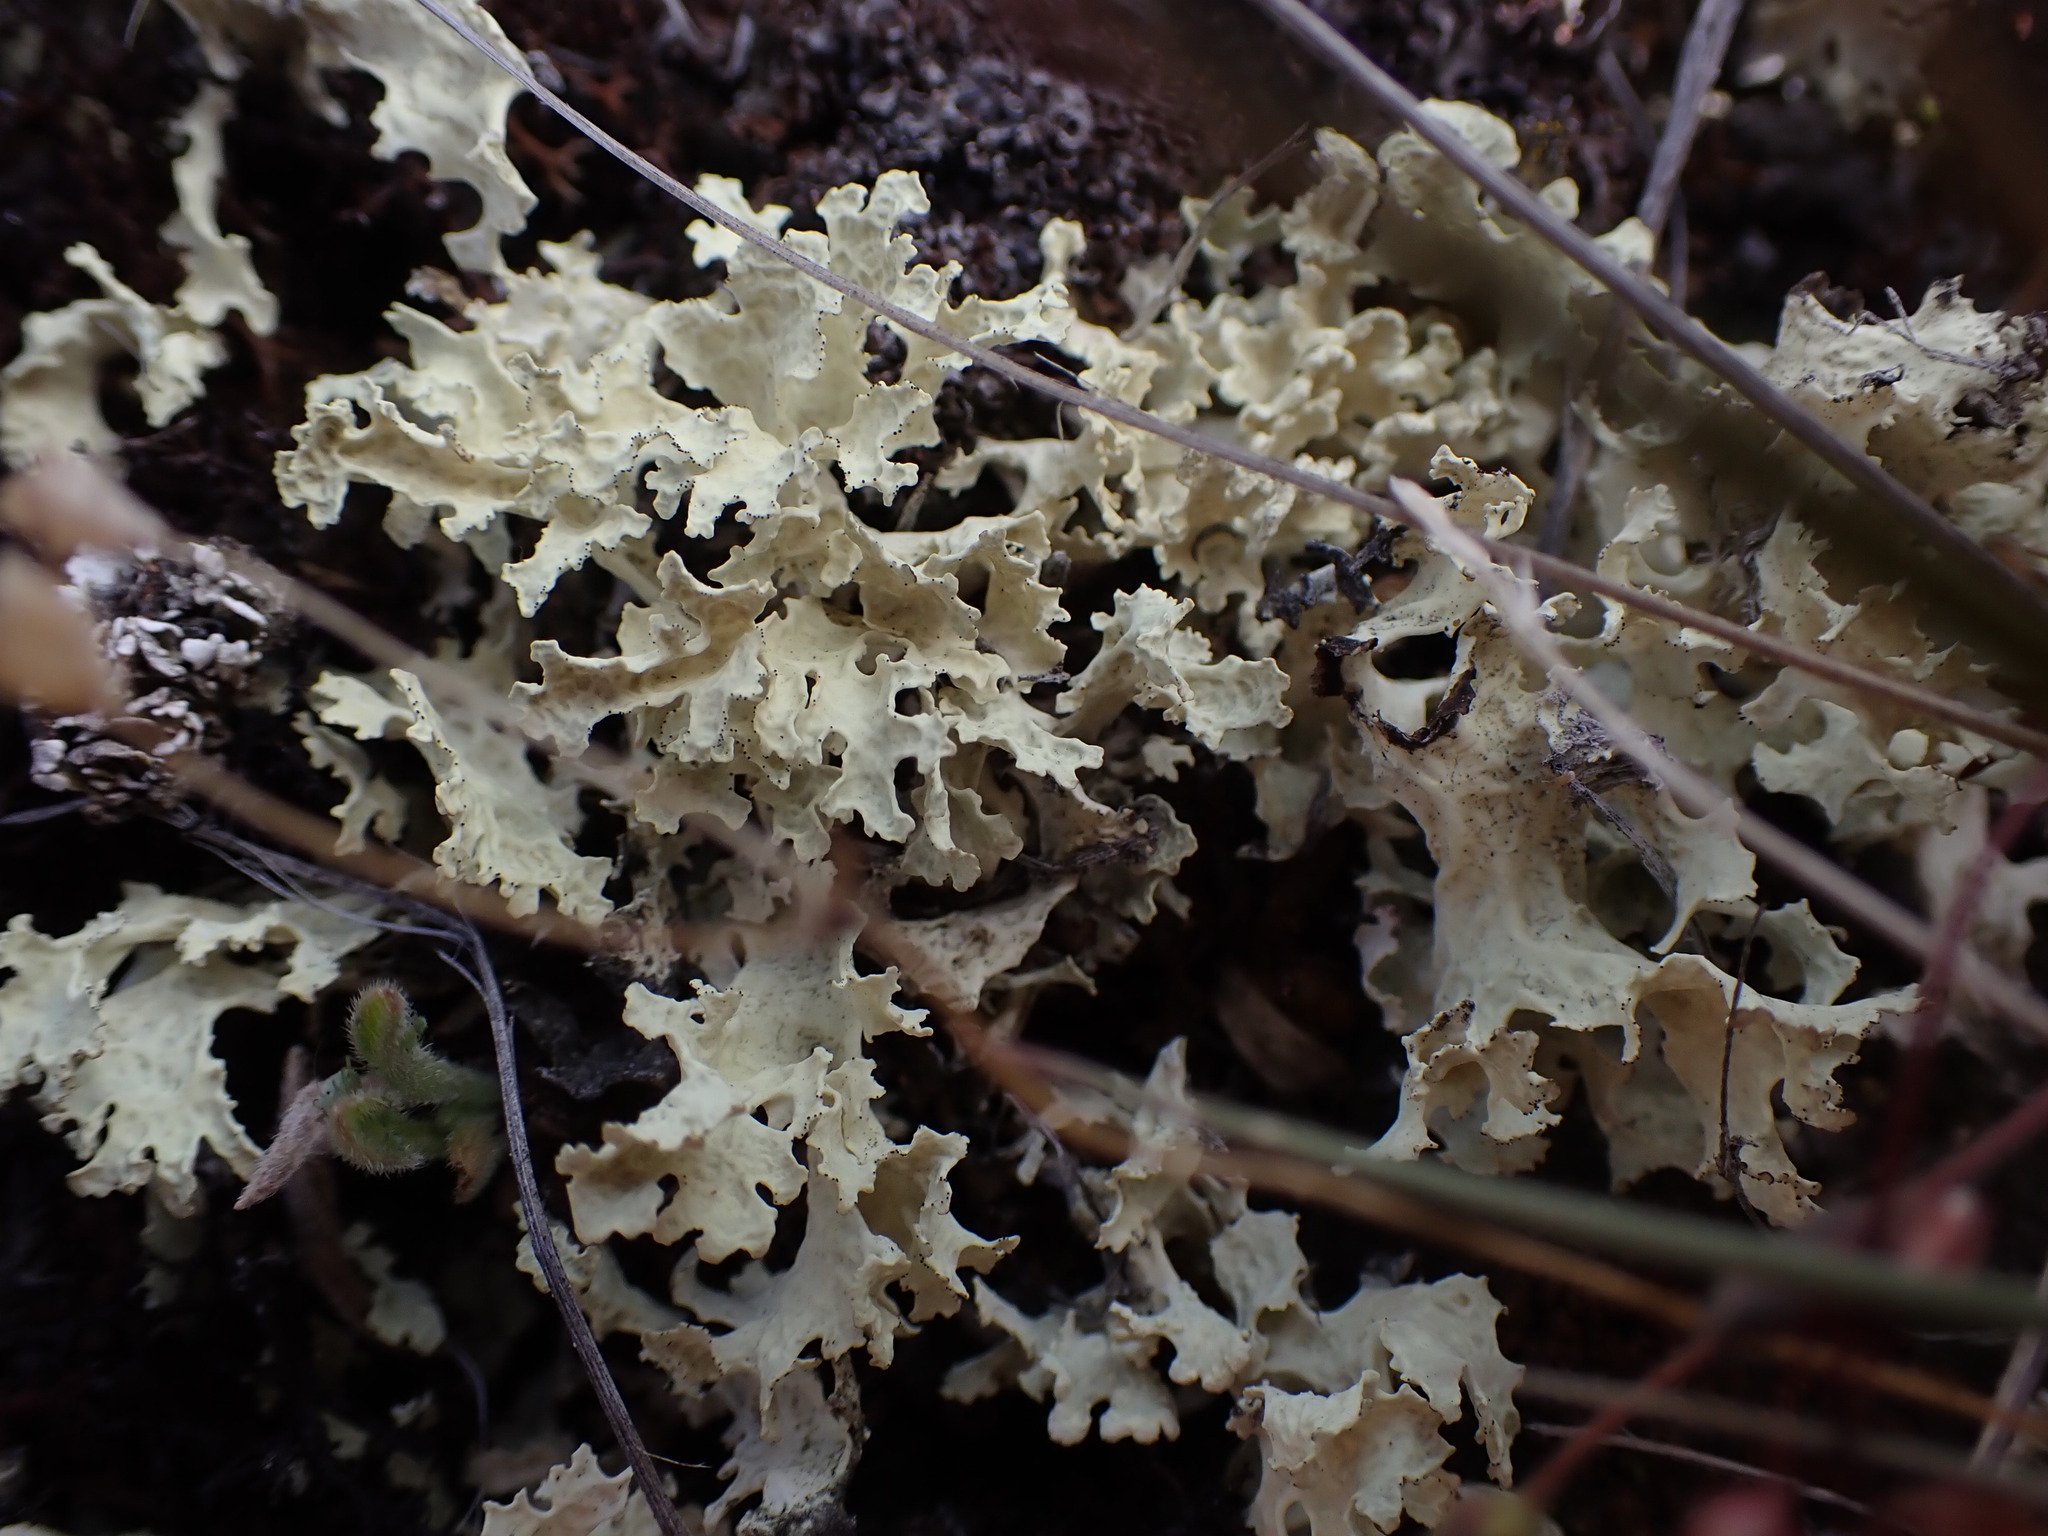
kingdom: Fungi
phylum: Ascomycota
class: Lecanoromycetes
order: Lecanorales
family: Parmeliaceae
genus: Nephromopsis
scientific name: Nephromopsis nivalis
